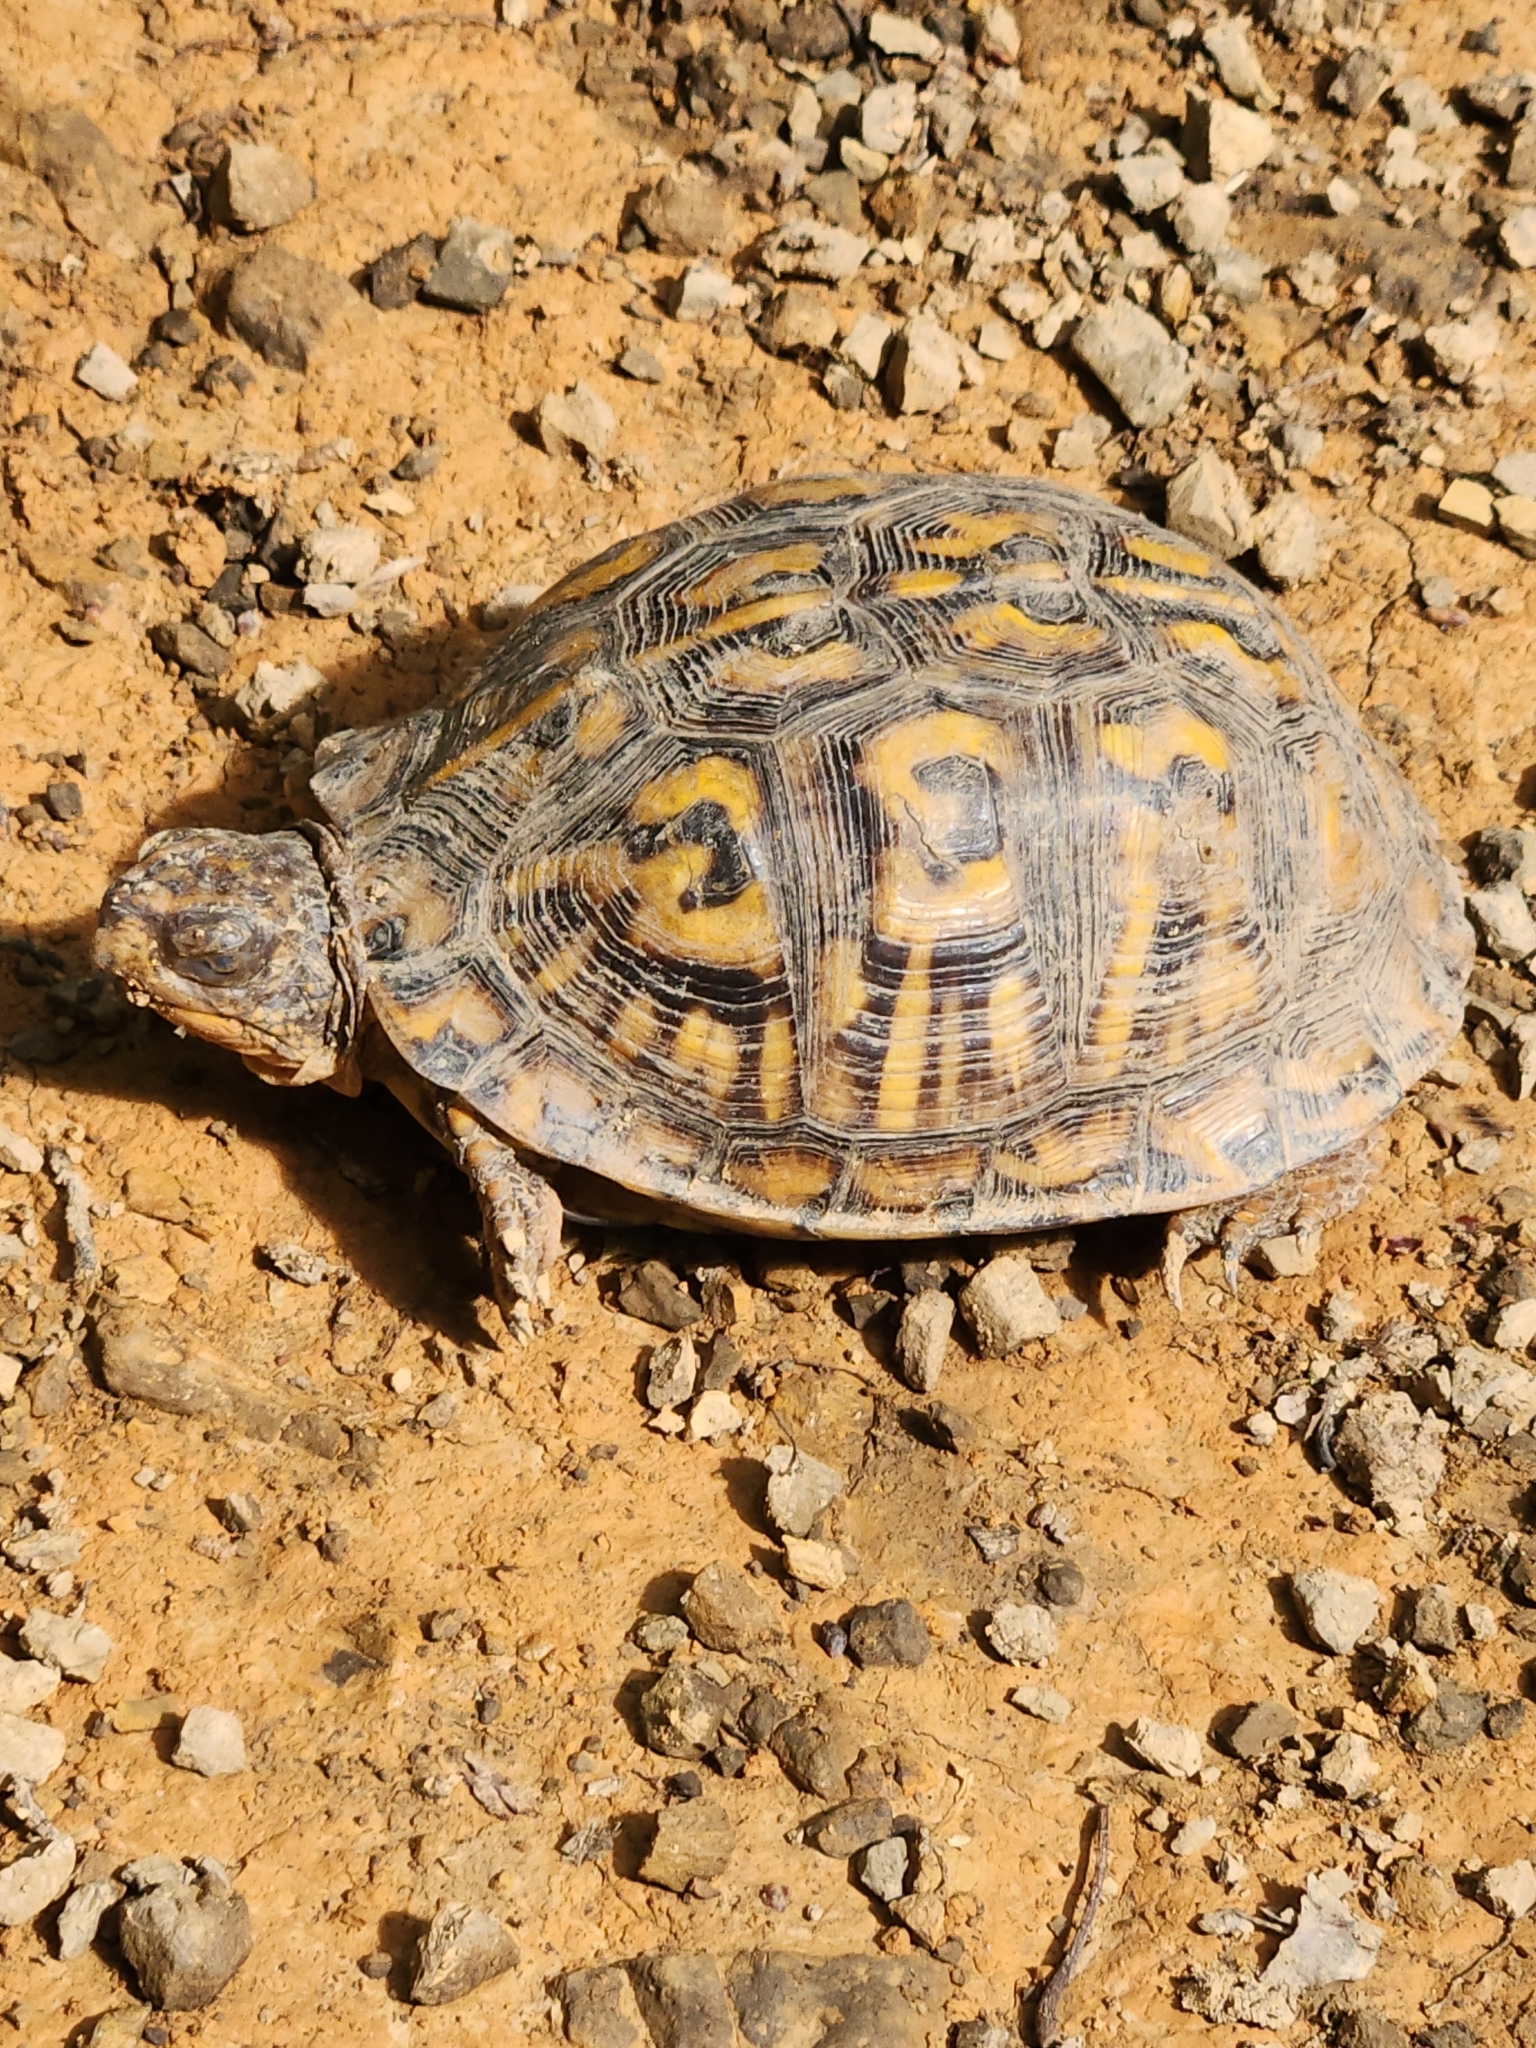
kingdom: Animalia
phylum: Chordata
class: Testudines
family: Emydidae
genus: Terrapene
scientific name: Terrapene carolina
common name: Common box turtle
